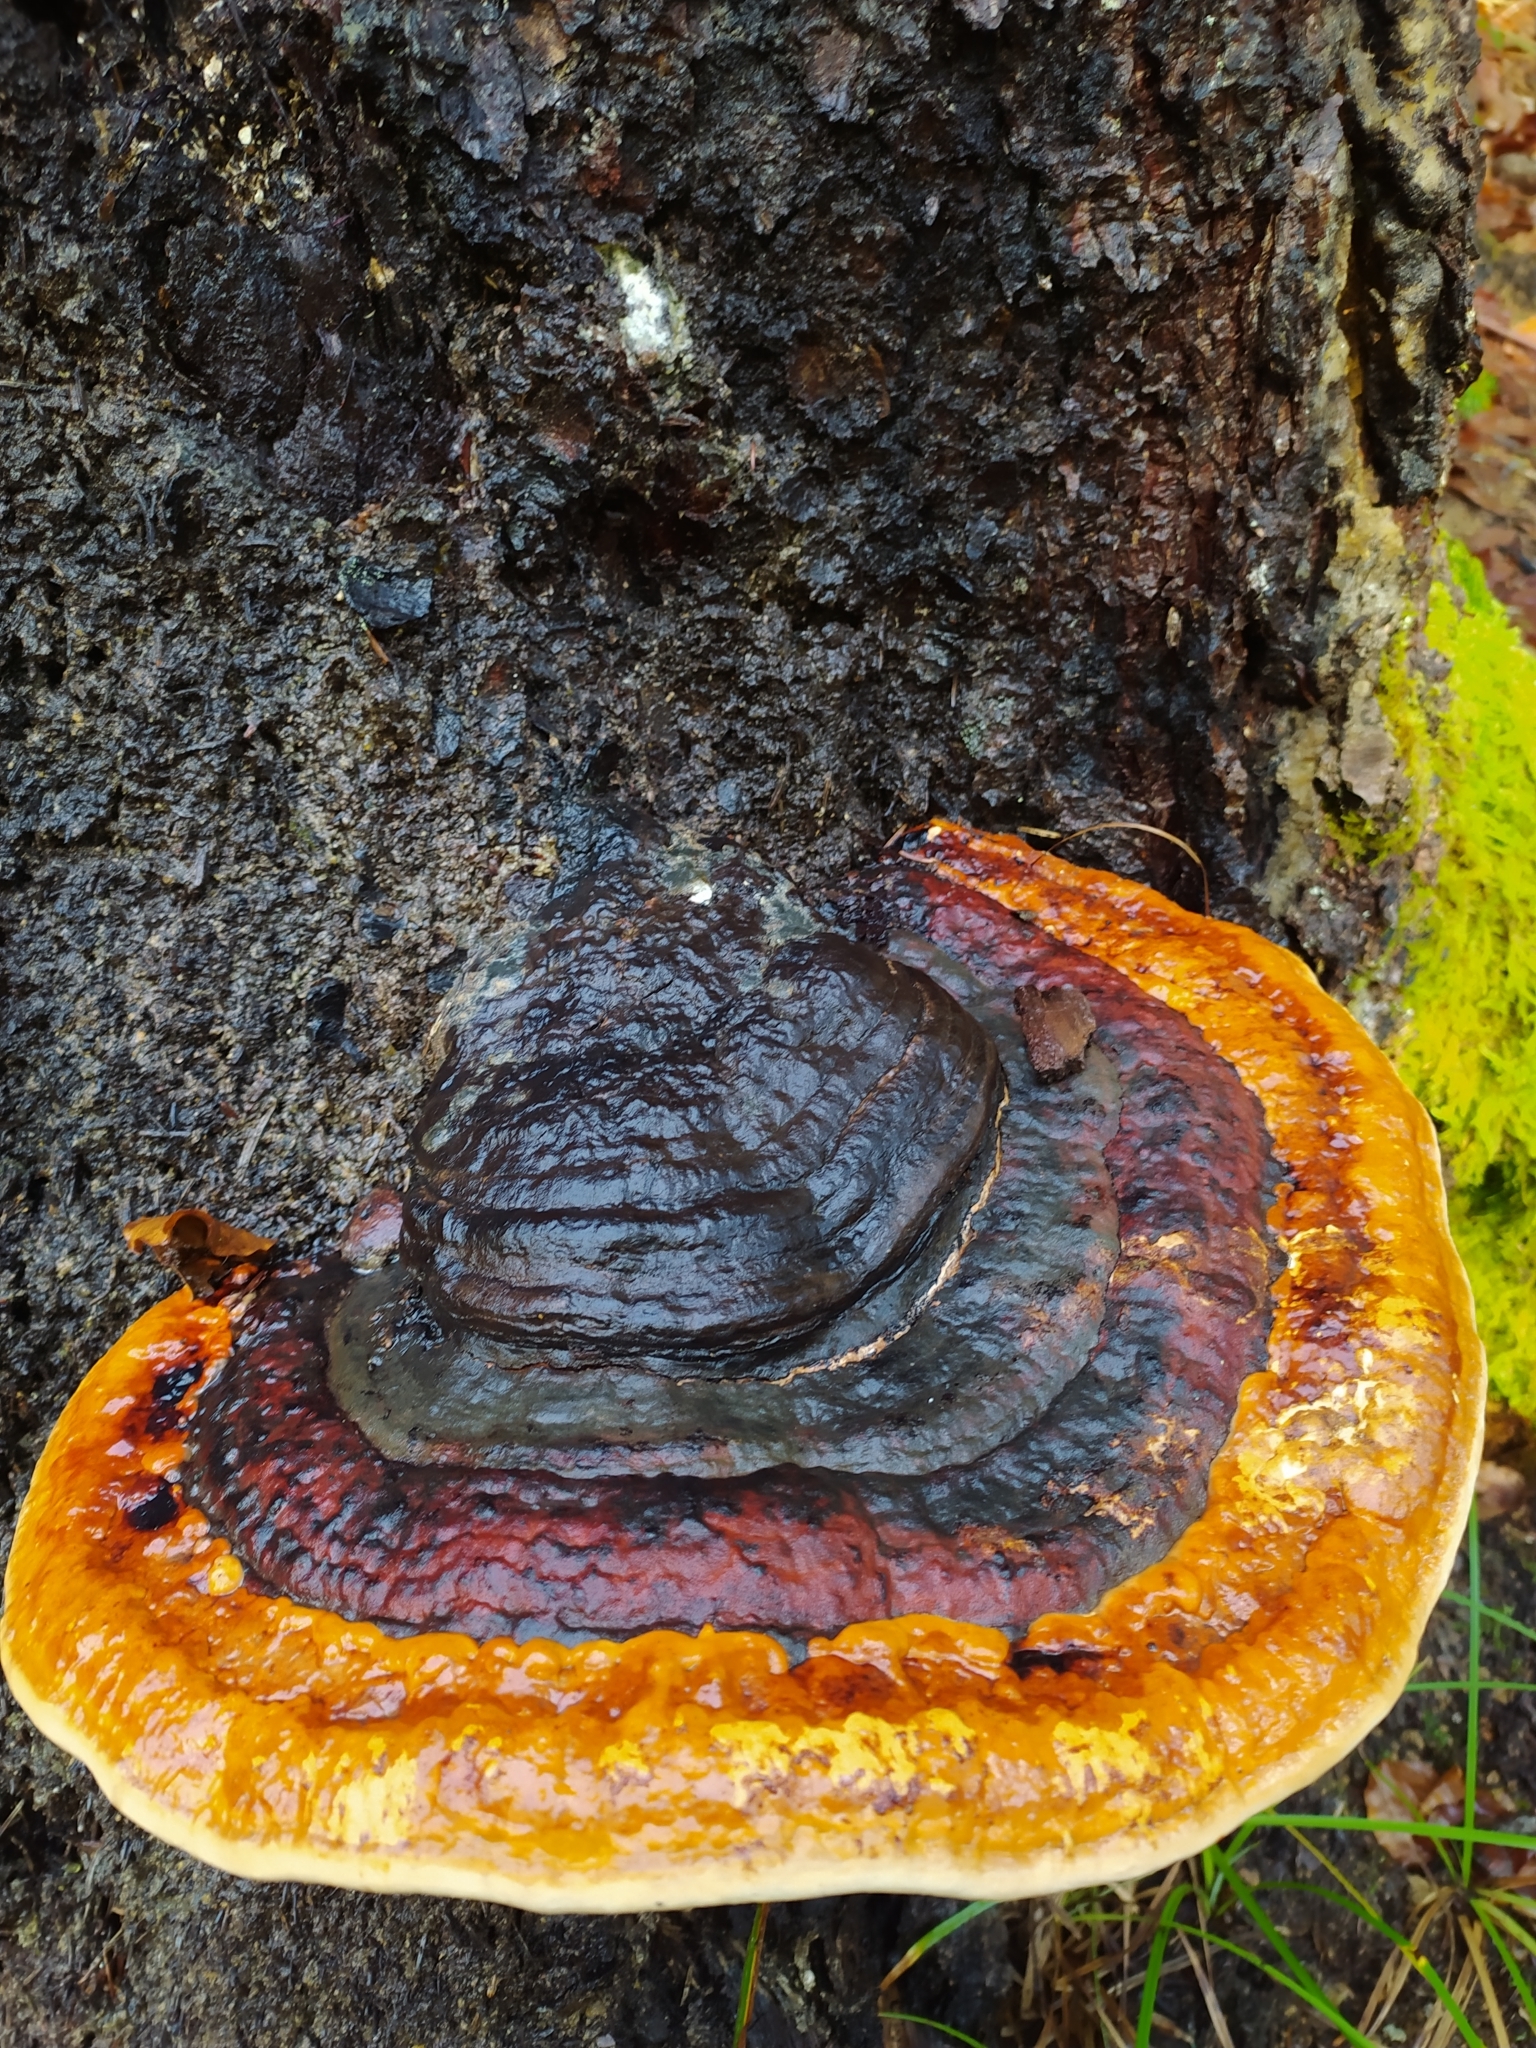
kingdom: Fungi
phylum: Basidiomycota
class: Agaricomycetes
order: Polyporales
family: Fomitopsidaceae
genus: Fomitopsis
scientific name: Fomitopsis pinicola
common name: Red-belted bracket
